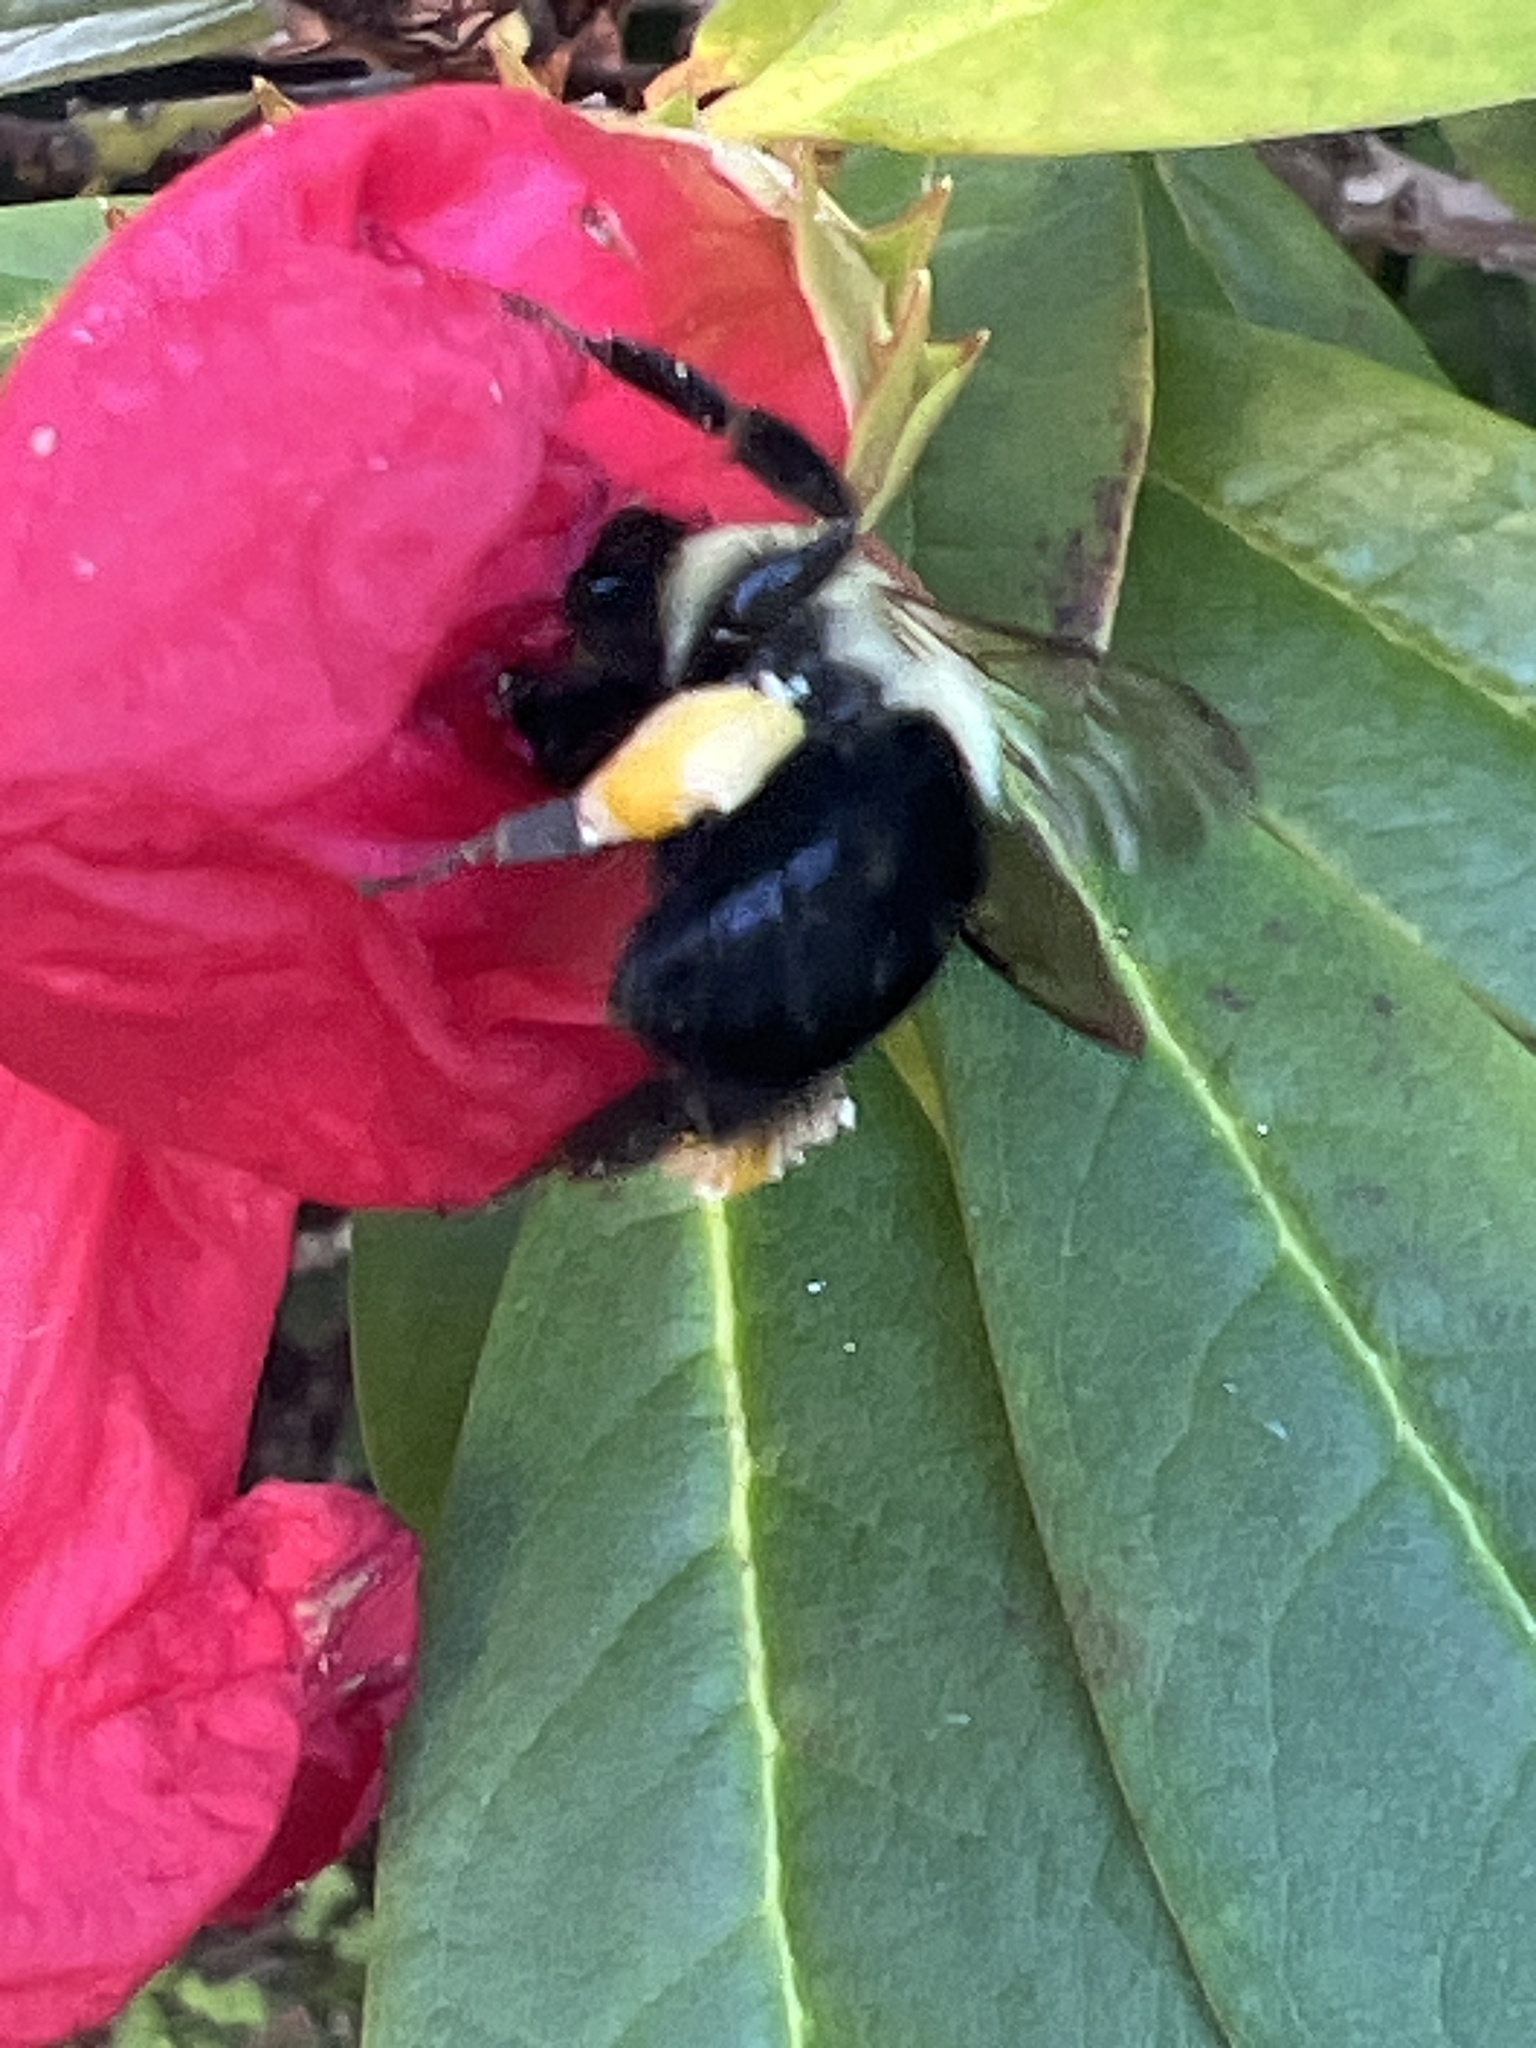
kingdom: Animalia
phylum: Arthropoda
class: Insecta
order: Hymenoptera
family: Apidae
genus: Bombus
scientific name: Bombus impatiens
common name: Common eastern bumble bee
